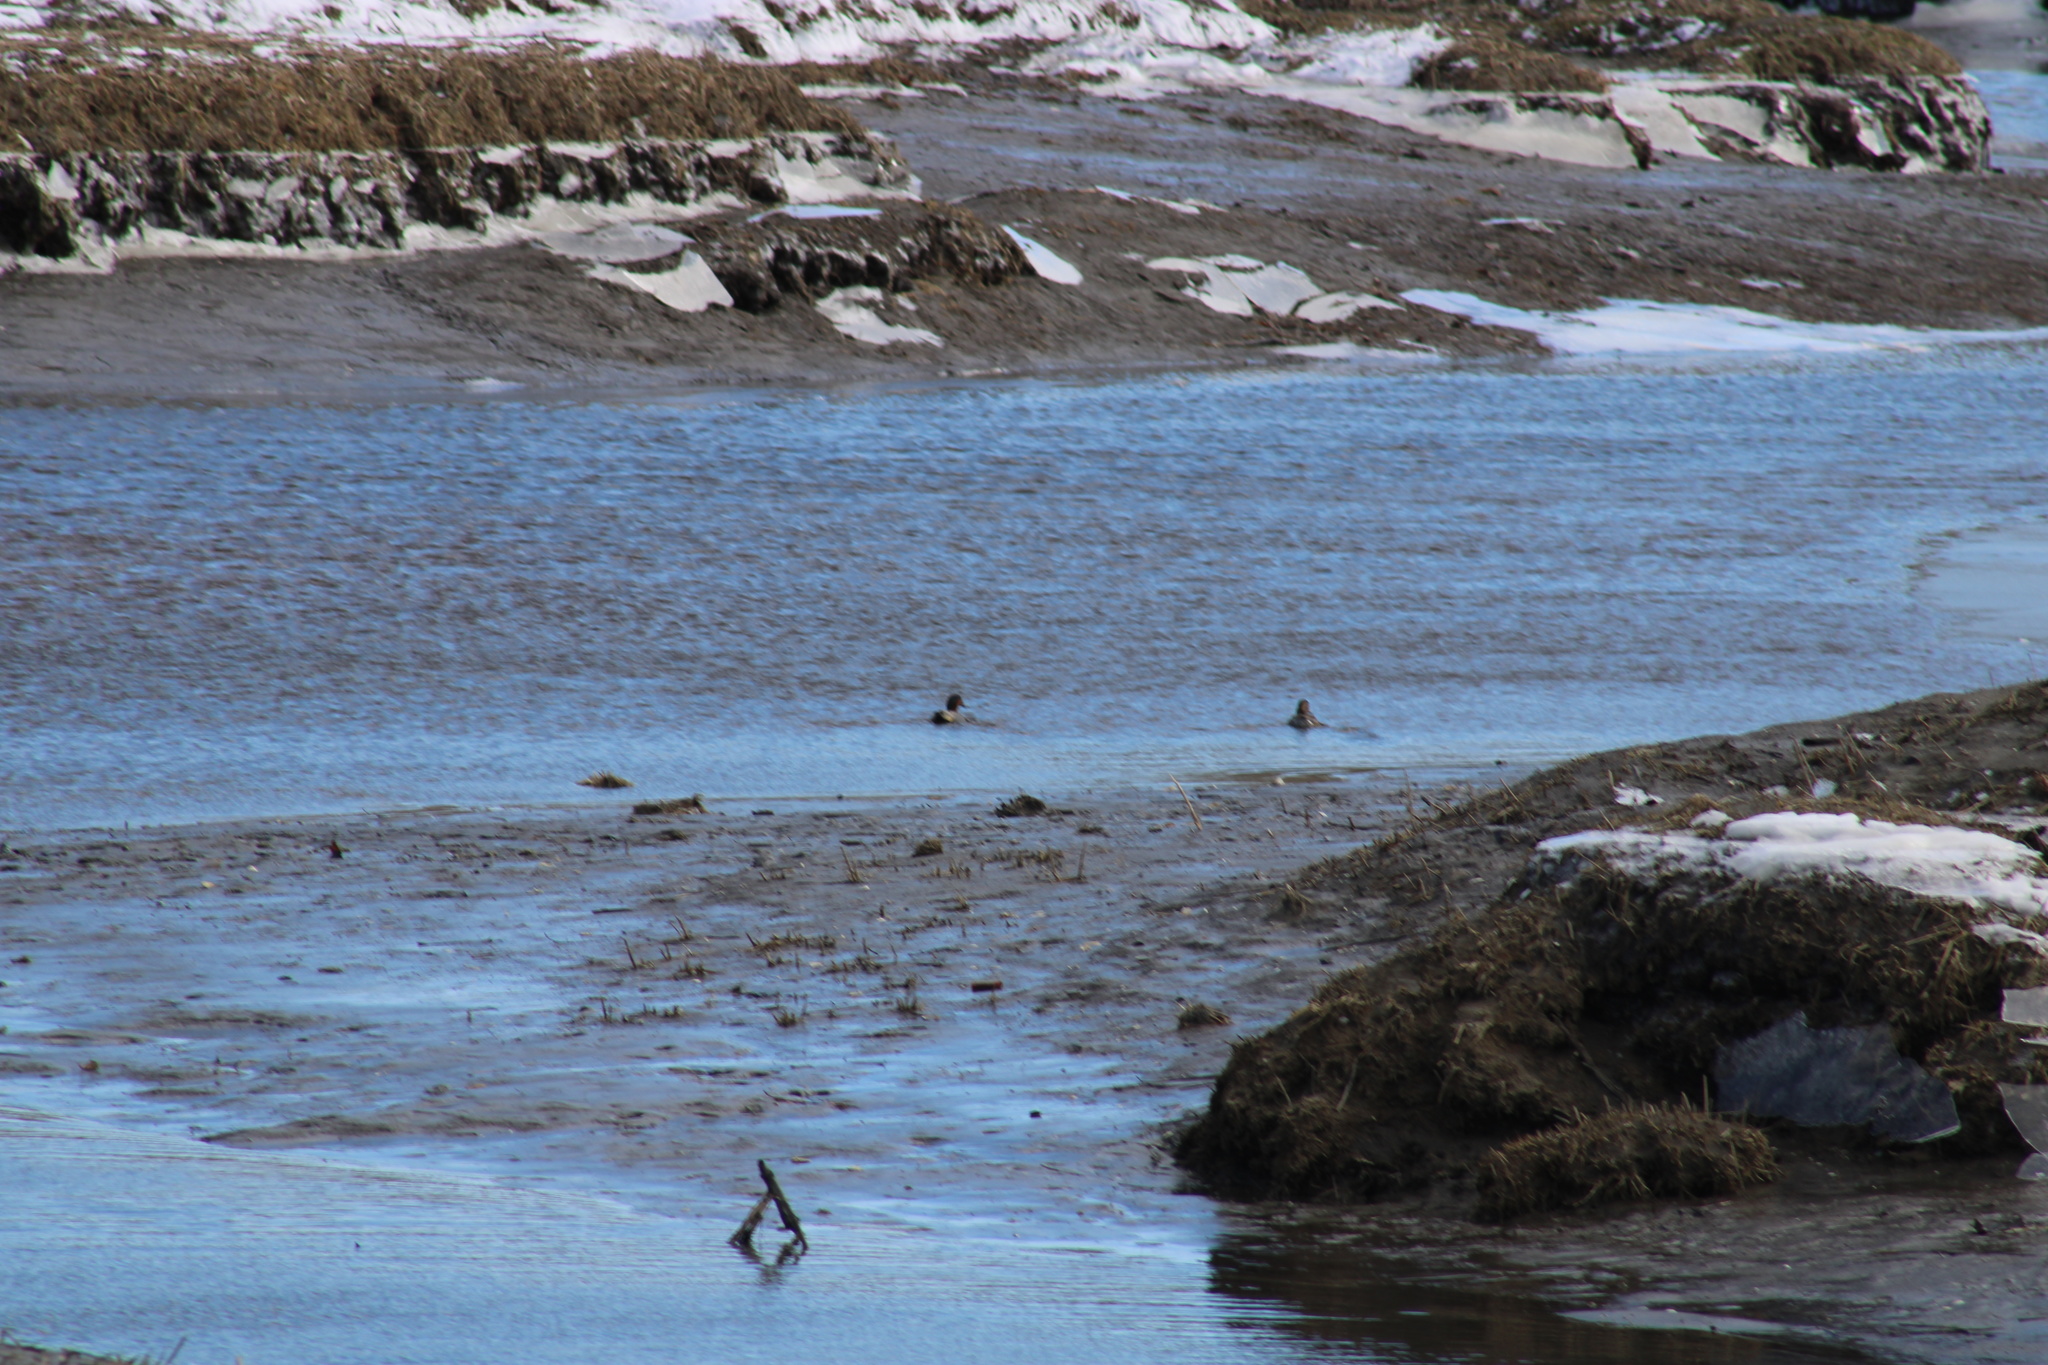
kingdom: Animalia
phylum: Chordata
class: Aves
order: Anseriformes
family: Anatidae
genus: Anas
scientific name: Anas crecca
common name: Eurasian teal
